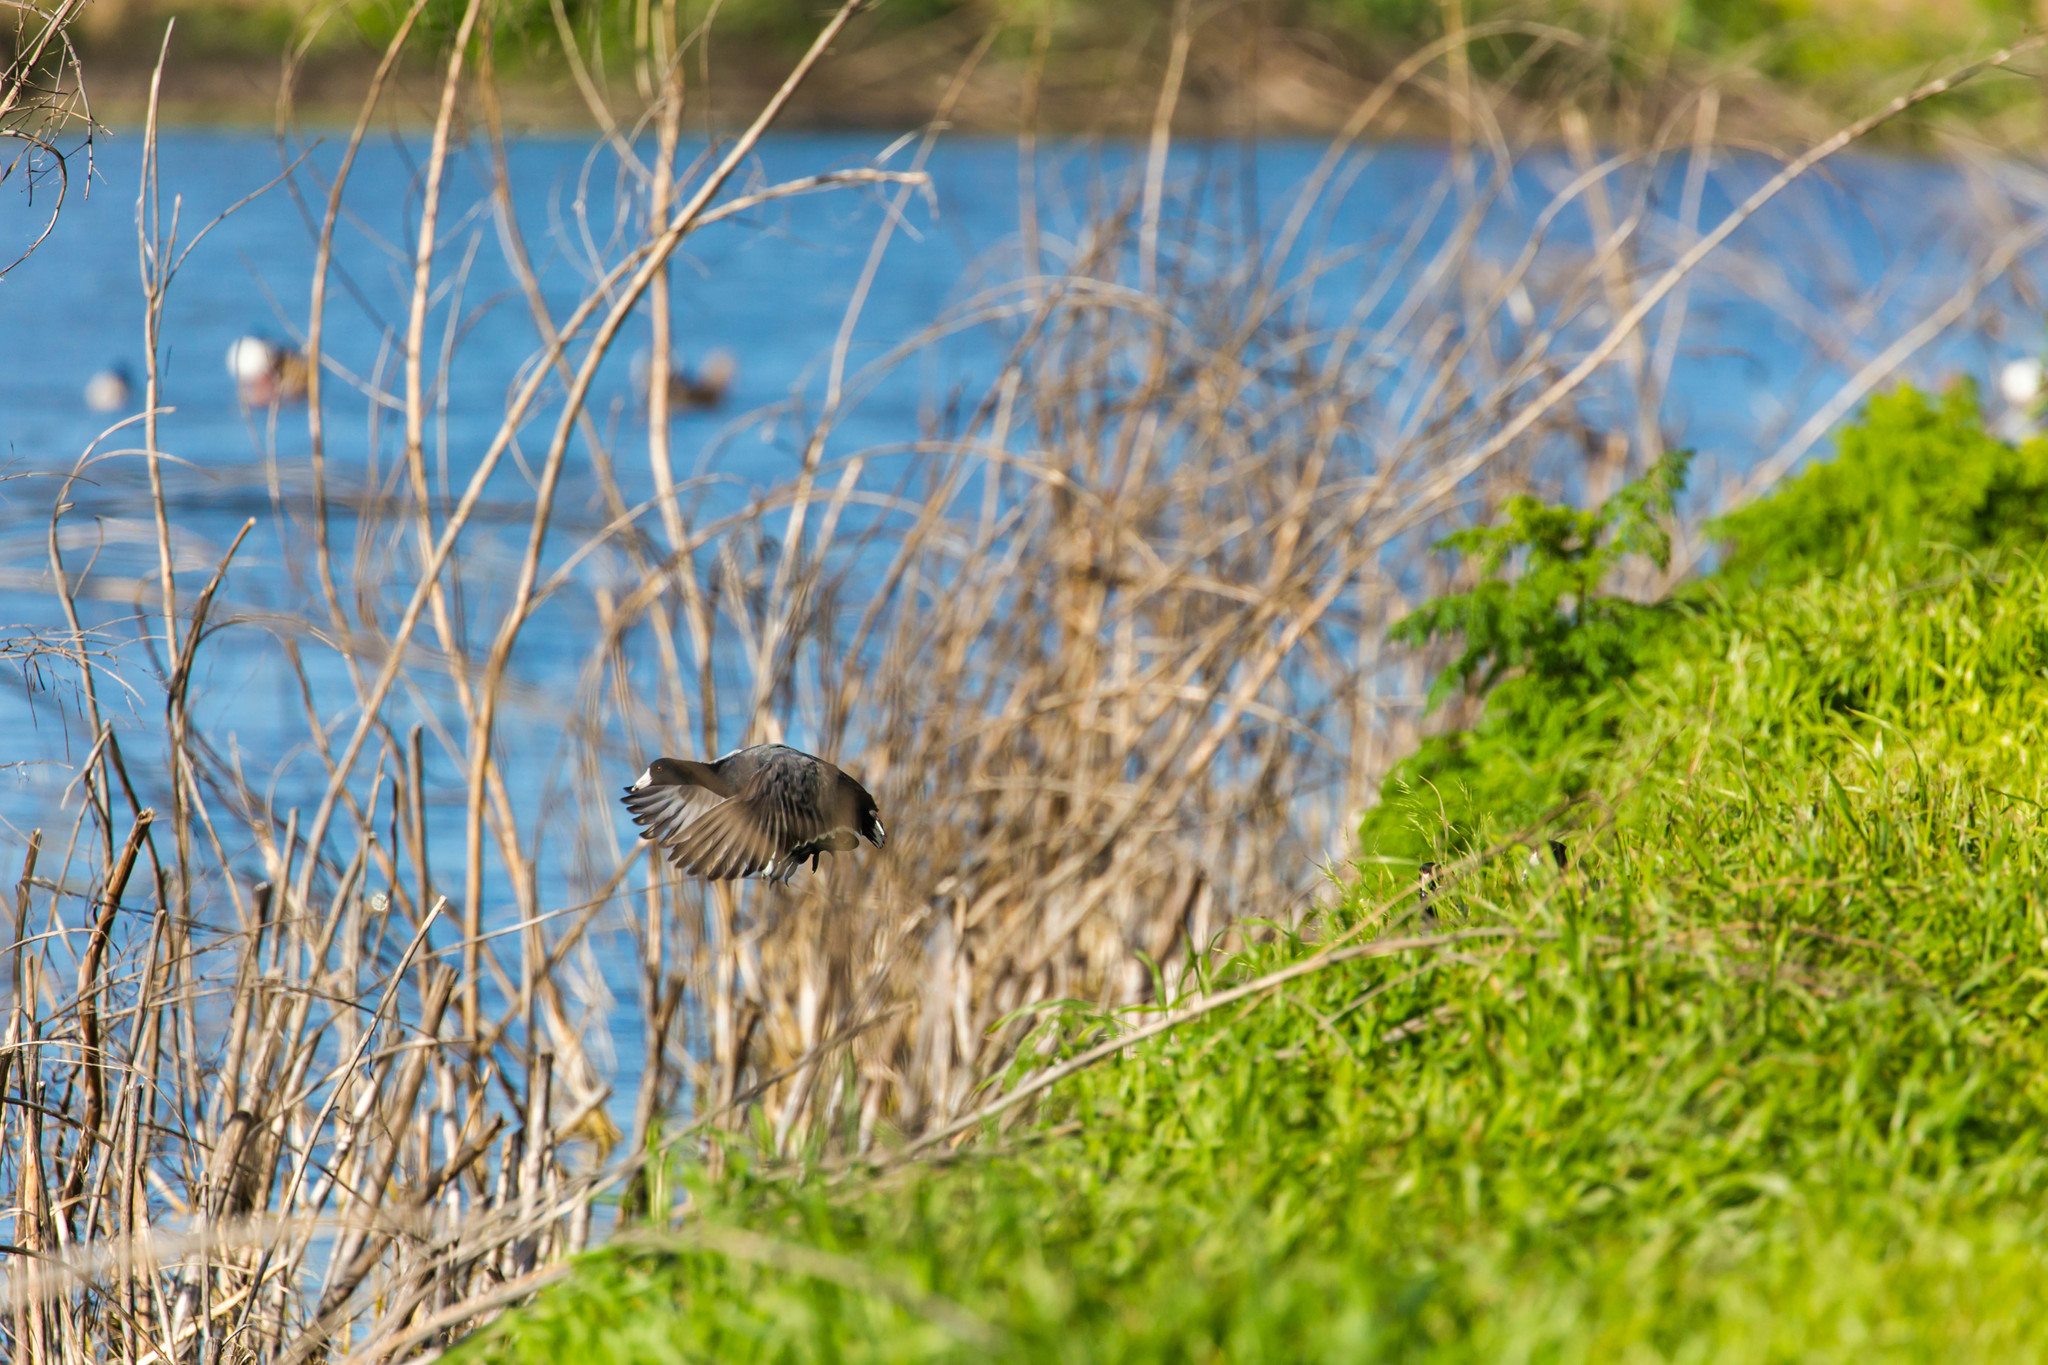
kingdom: Animalia
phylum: Chordata
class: Aves
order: Gruiformes
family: Rallidae
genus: Fulica
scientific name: Fulica americana
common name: American coot
